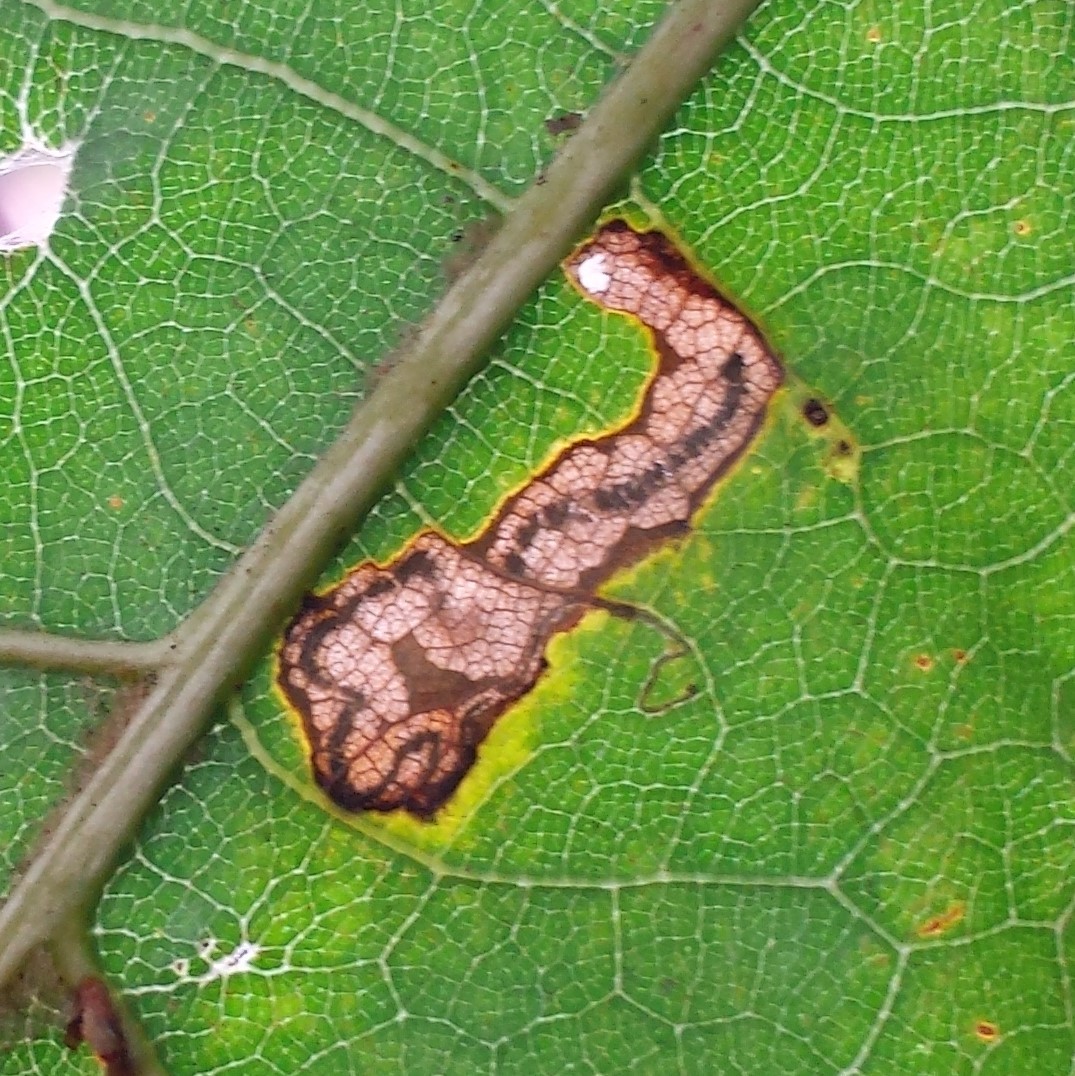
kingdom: Animalia
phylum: Arthropoda
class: Insecta
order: Lepidoptera
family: Nepticulidae
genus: Stigmella
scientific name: Stigmella quercipulchella
